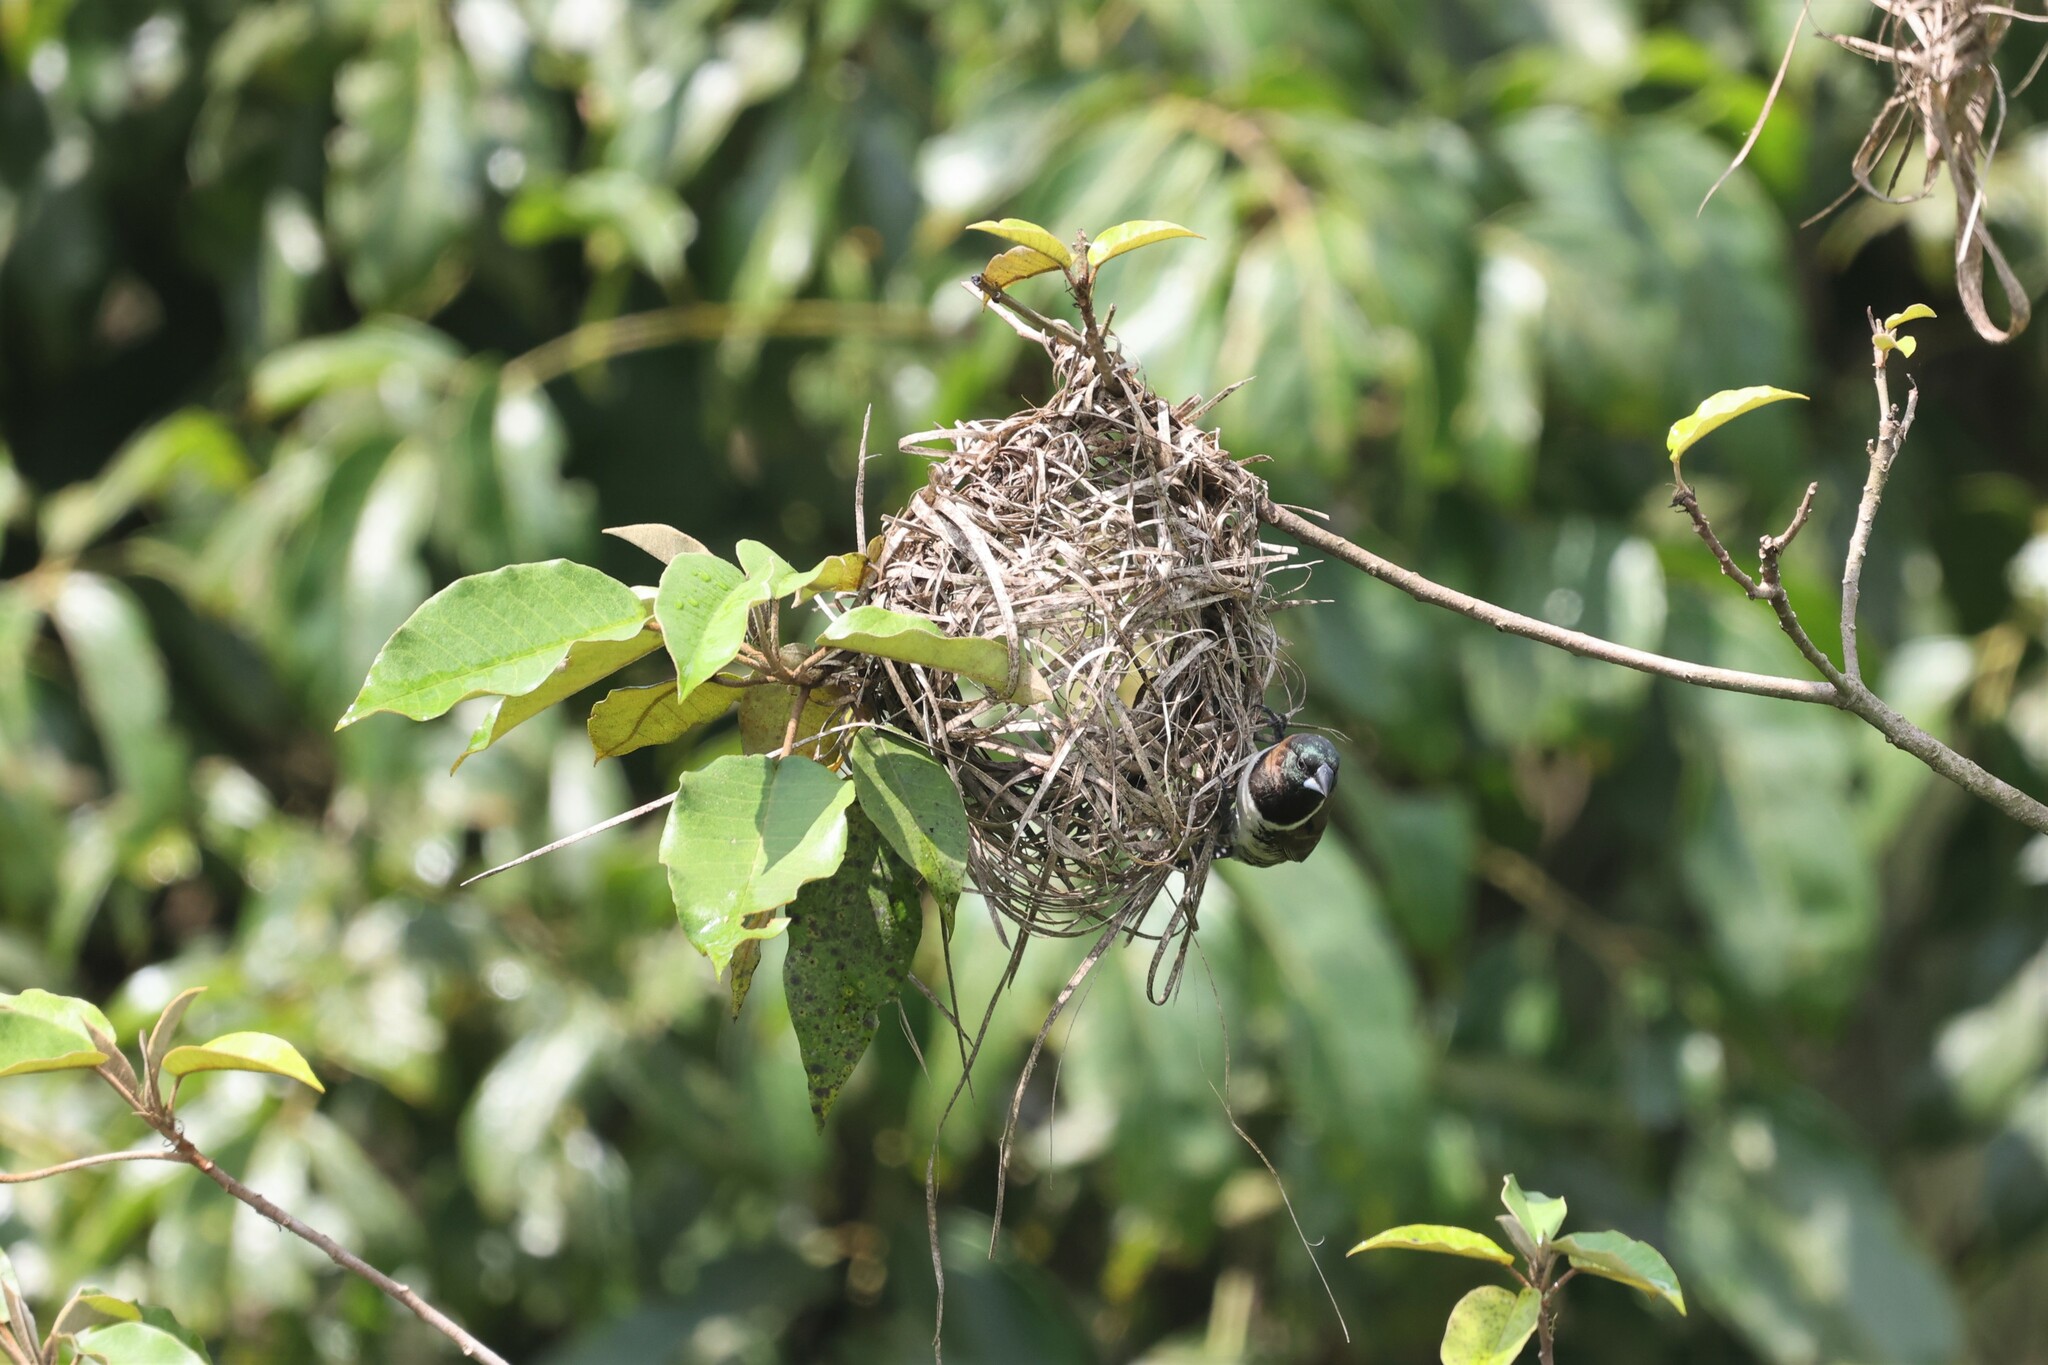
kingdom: Animalia
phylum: Chordata
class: Aves
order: Passeriformes
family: Estrildidae
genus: Lonchura
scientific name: Lonchura cucullata
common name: Bronze mannikin
